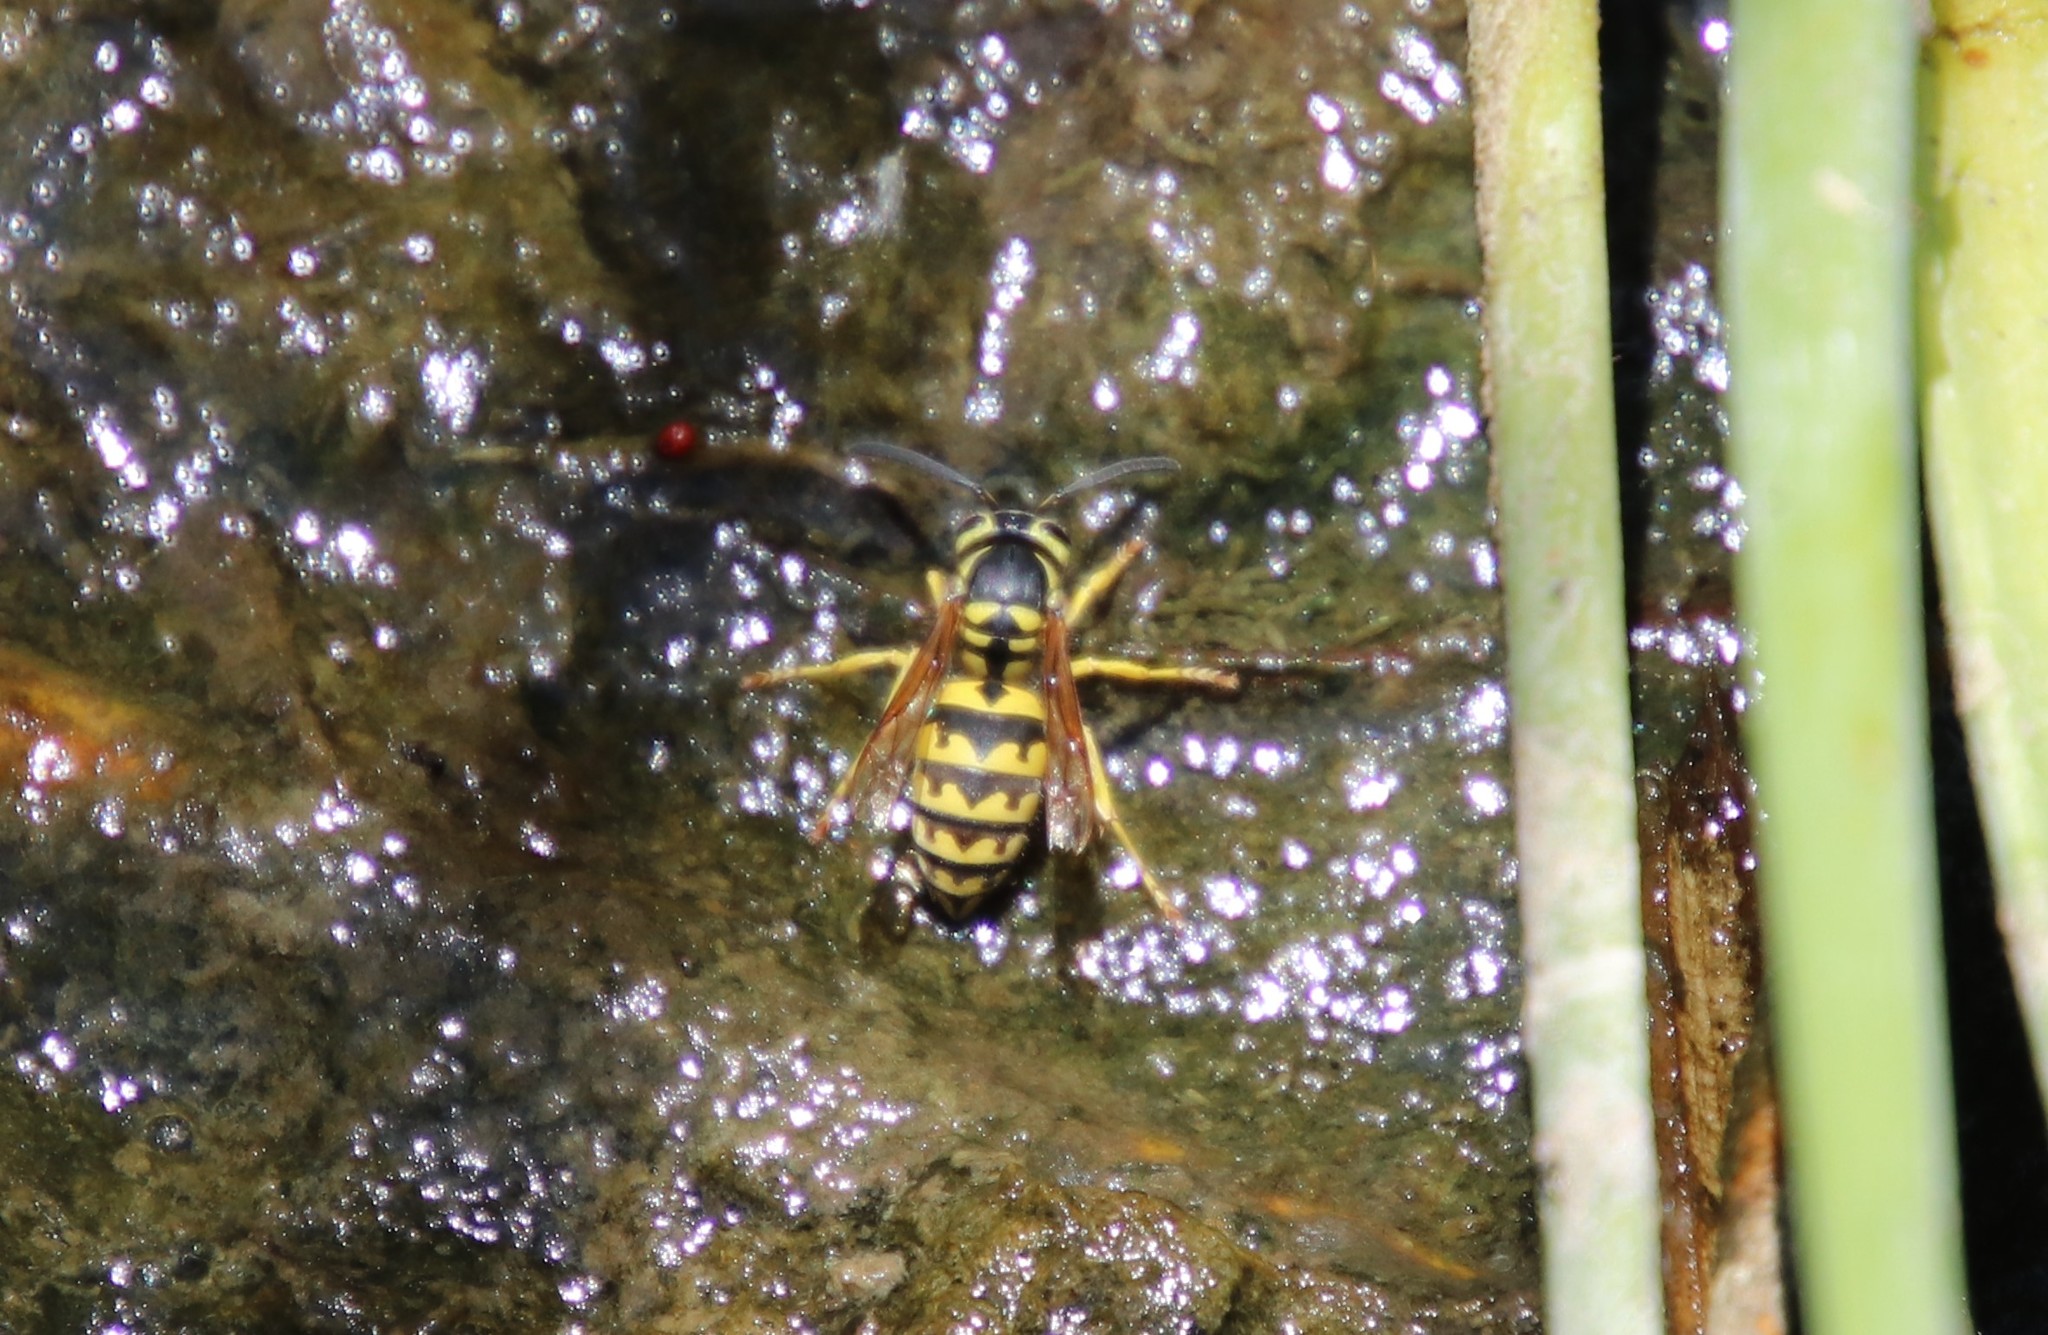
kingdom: Animalia
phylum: Arthropoda
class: Insecta
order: Hymenoptera
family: Vespidae
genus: Vespula
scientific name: Vespula pensylvanica
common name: Western yellowjacket
